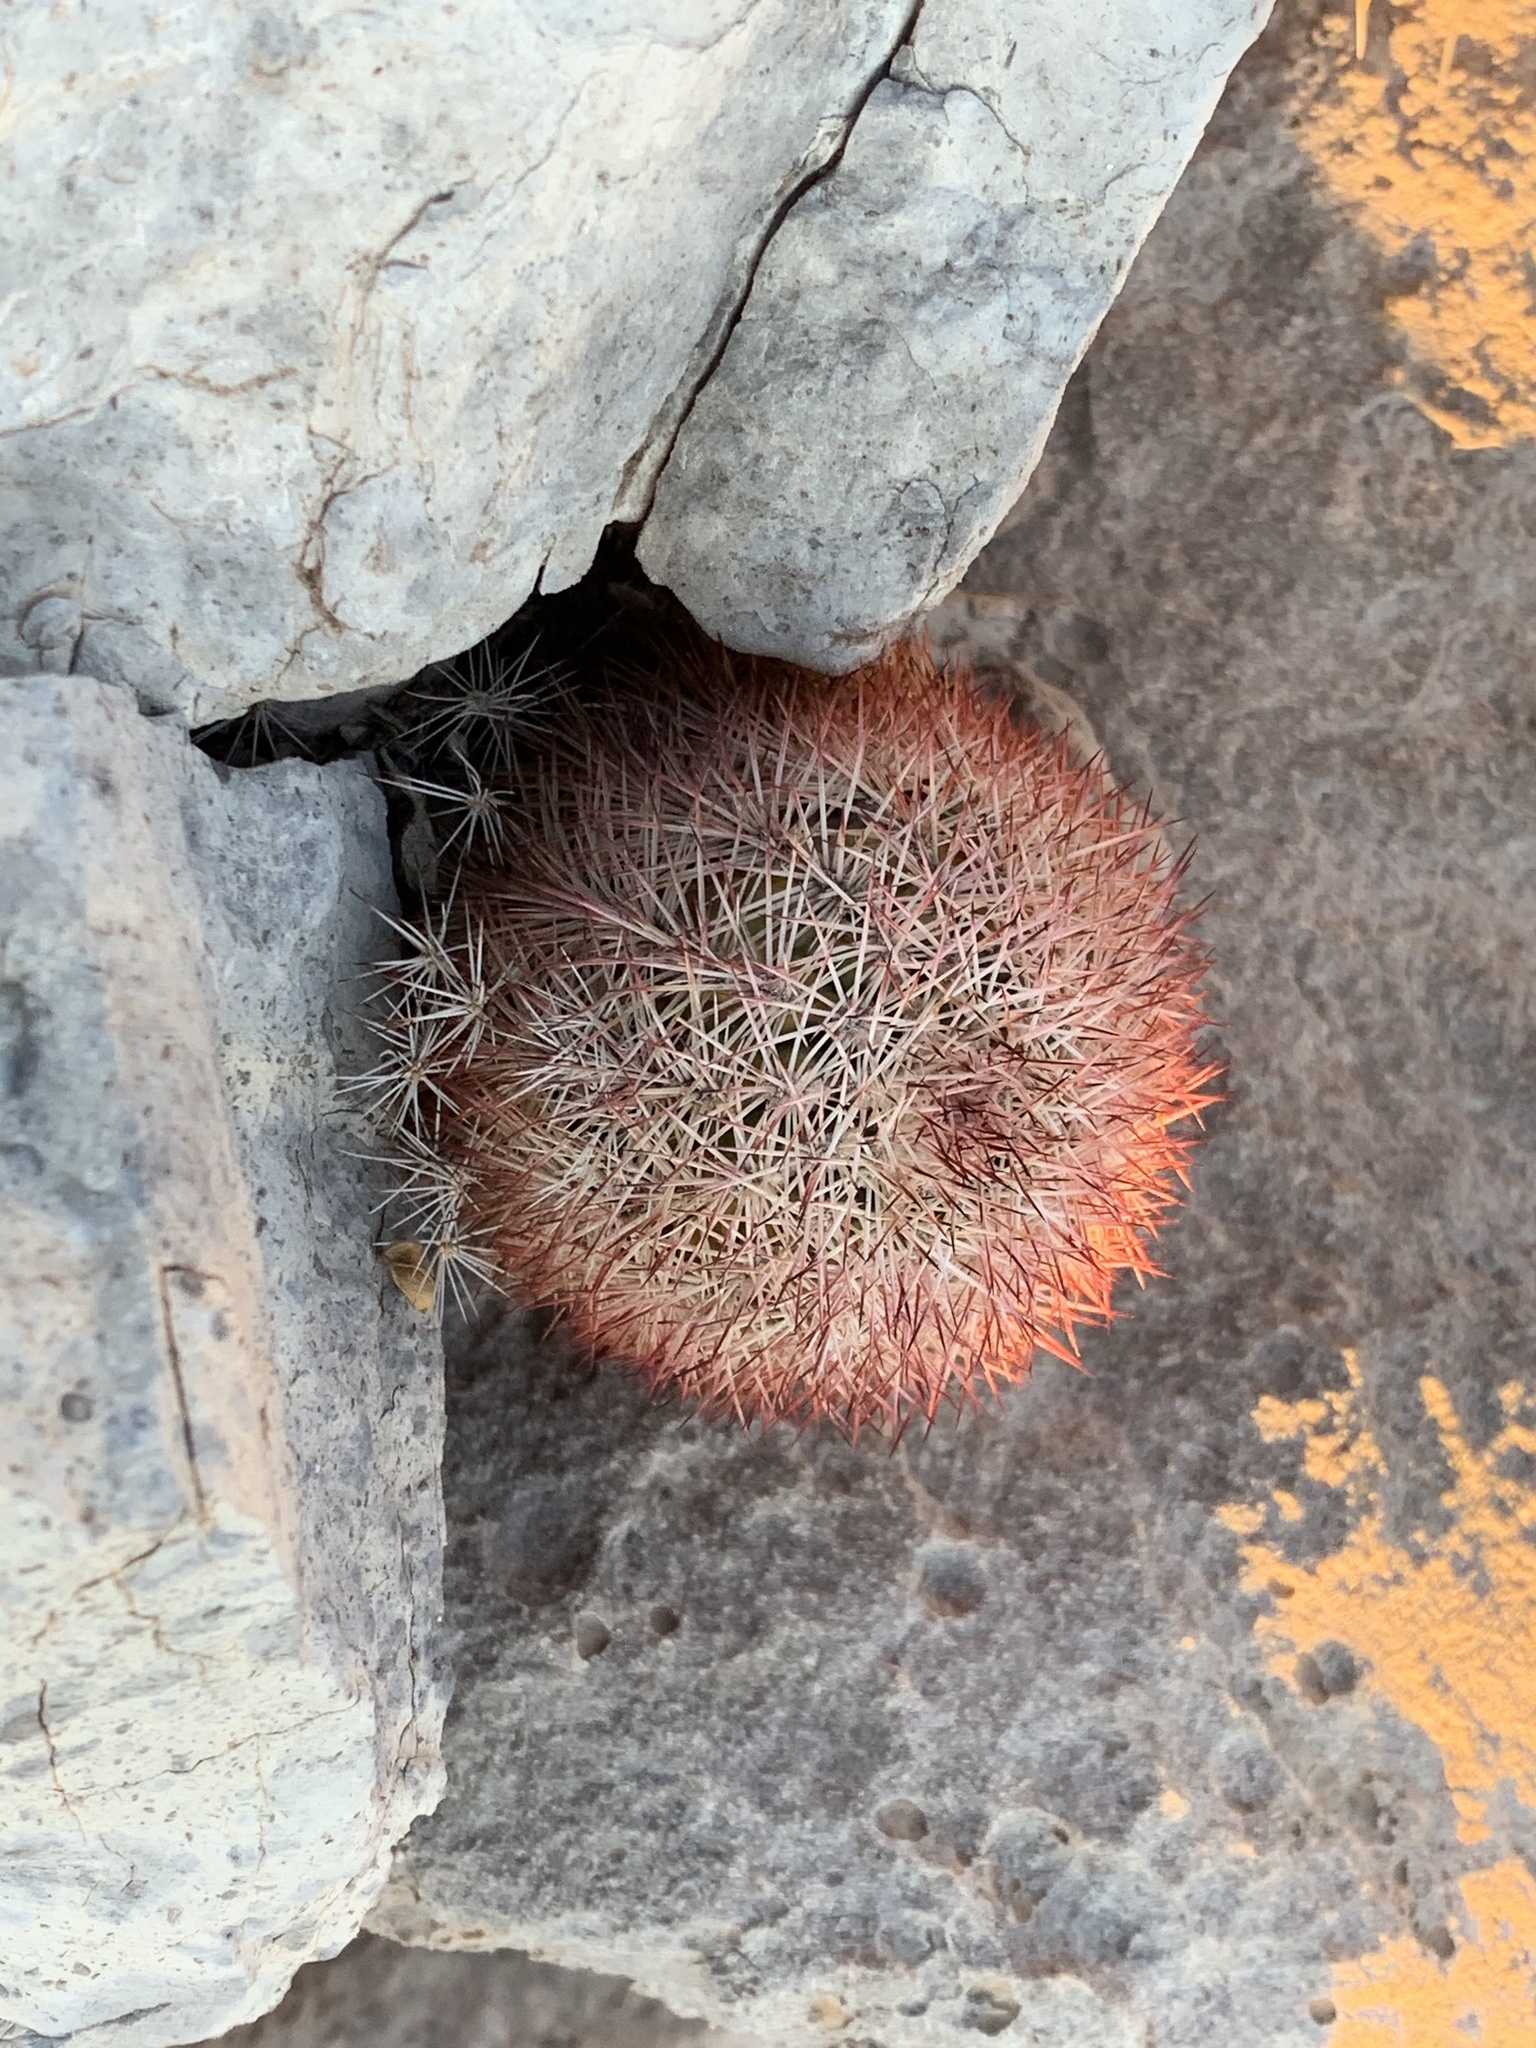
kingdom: Plantae
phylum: Tracheophyta
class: Magnoliopsida
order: Caryophyllales
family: Cactaceae
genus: Echinocereus
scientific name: Echinocereus dasyacanthus
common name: Spiny hedgehog cactus
